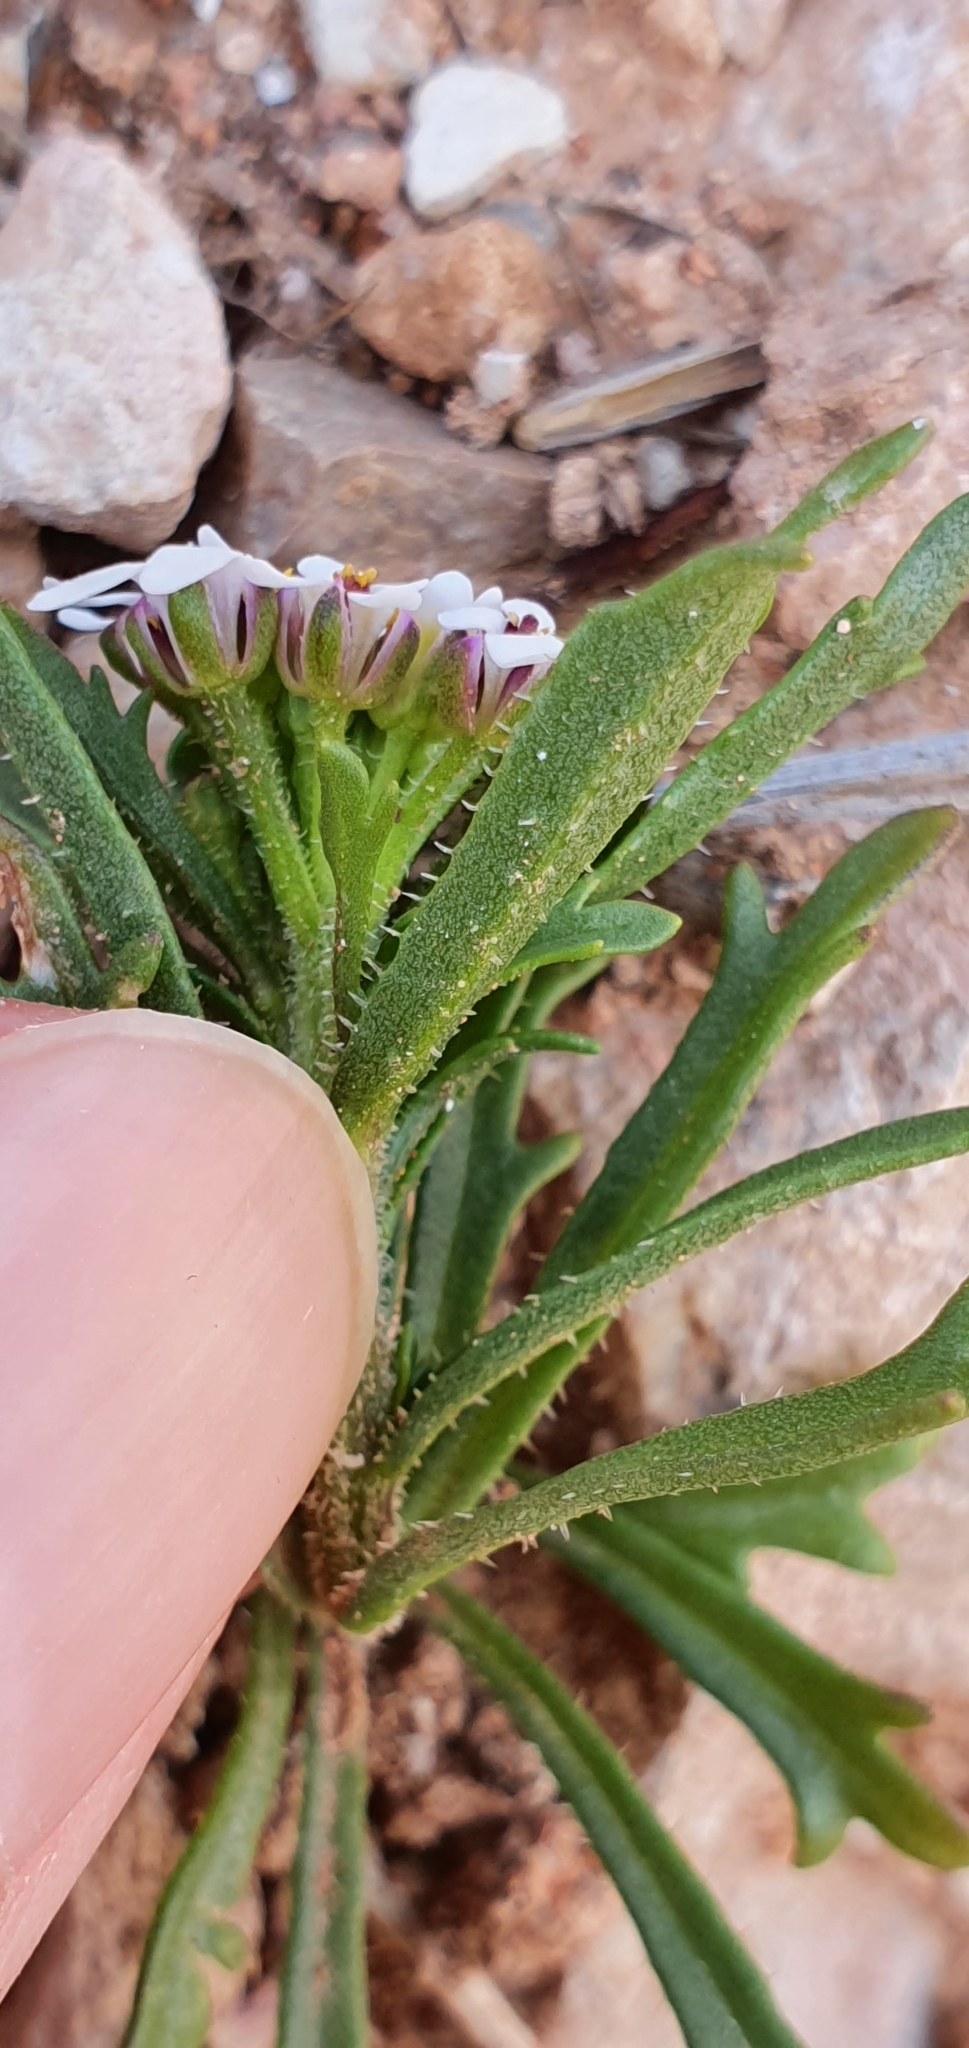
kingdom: Plantae
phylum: Tracheophyta
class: Magnoliopsida
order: Brassicales
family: Brassicaceae
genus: Iberis
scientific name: Iberis odorata
